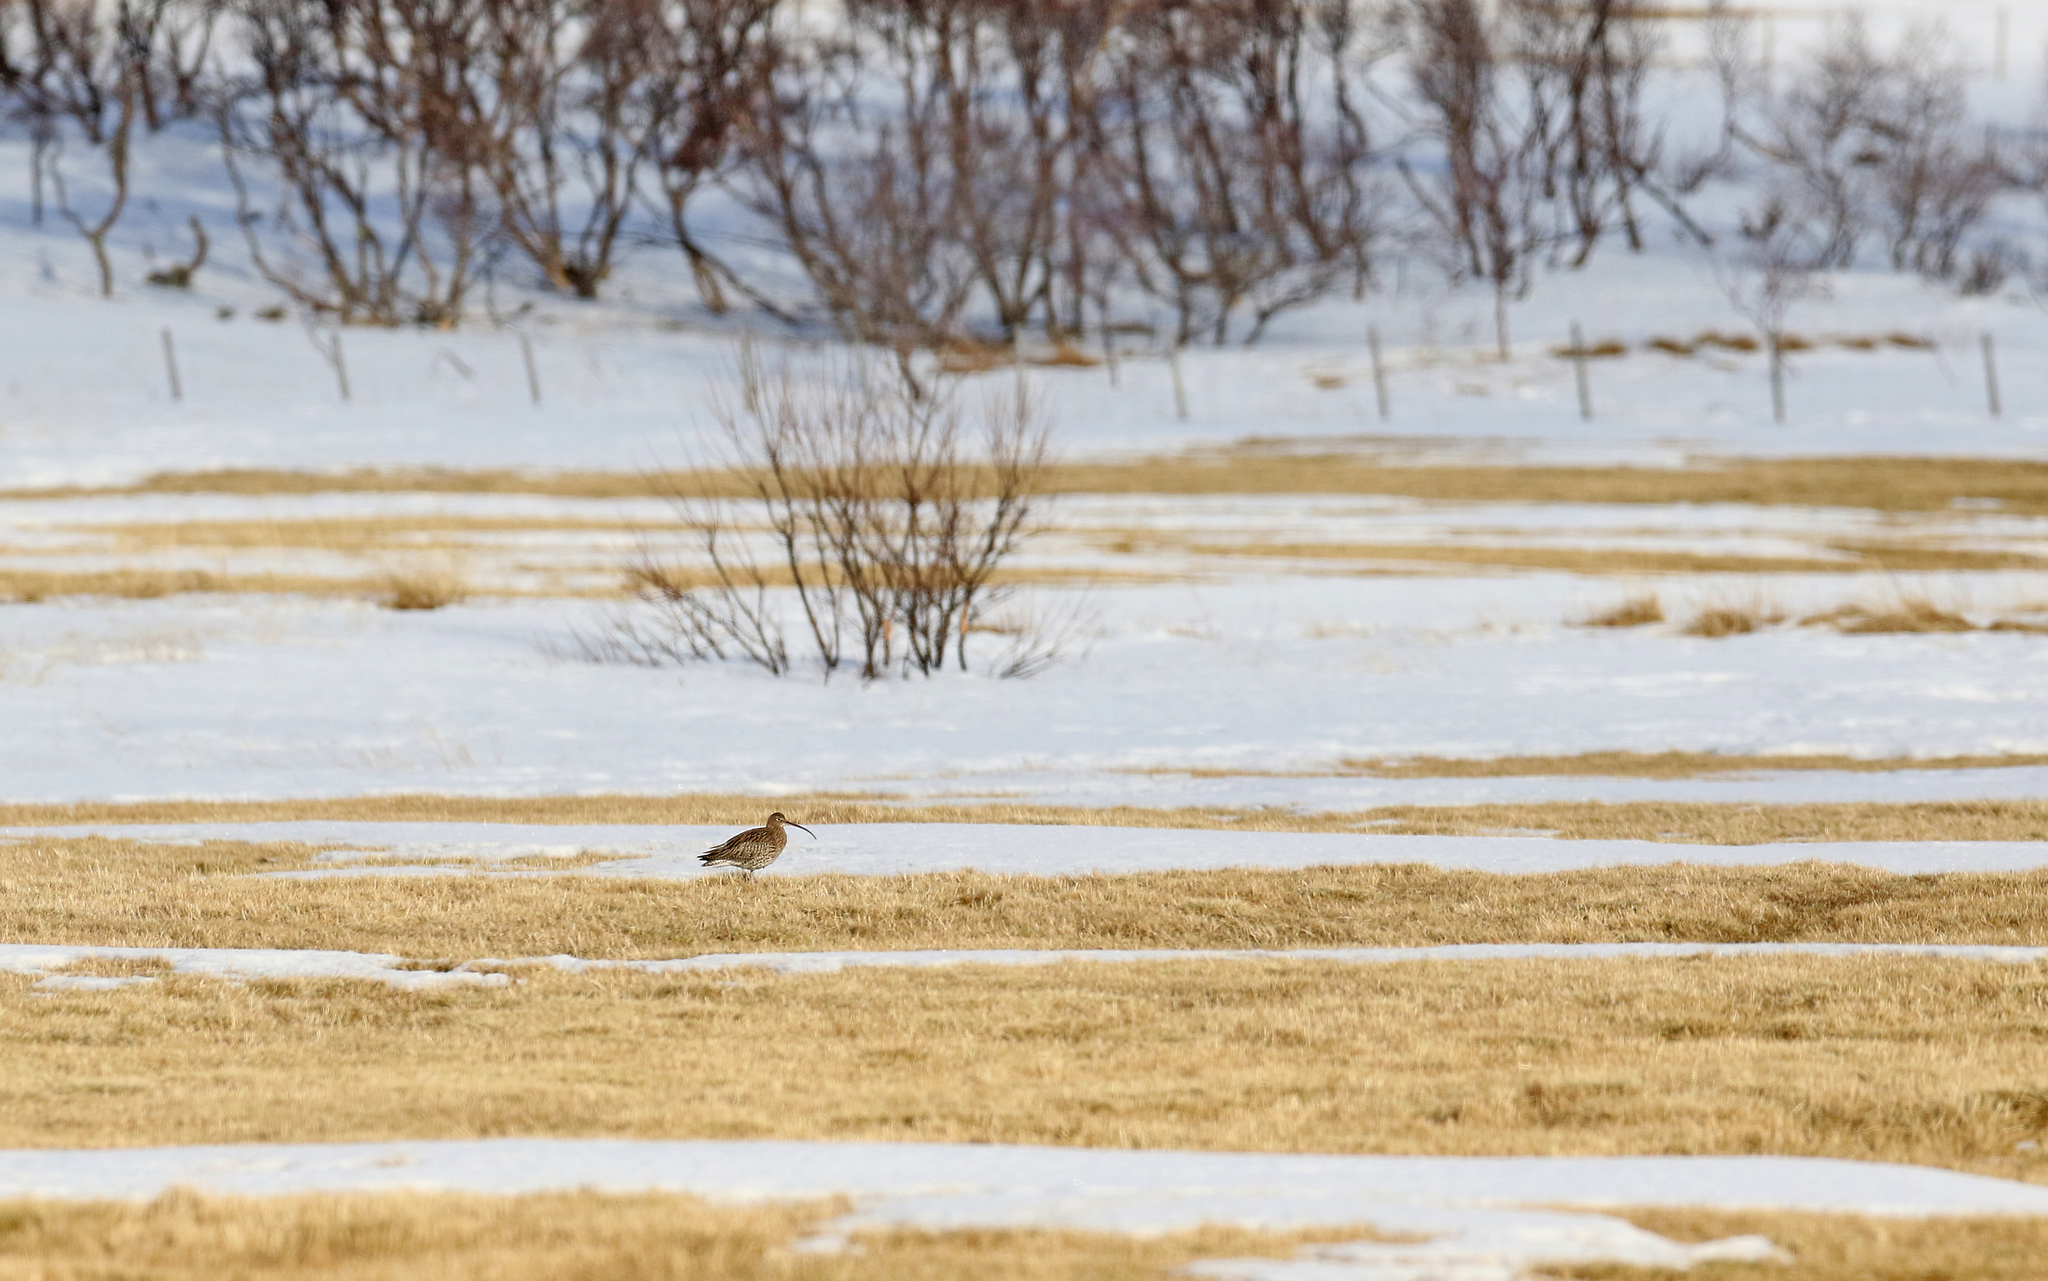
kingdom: Animalia
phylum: Chordata
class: Aves
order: Charadriiformes
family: Scolopacidae
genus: Numenius
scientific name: Numenius arquata
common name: Eurasian curlew
